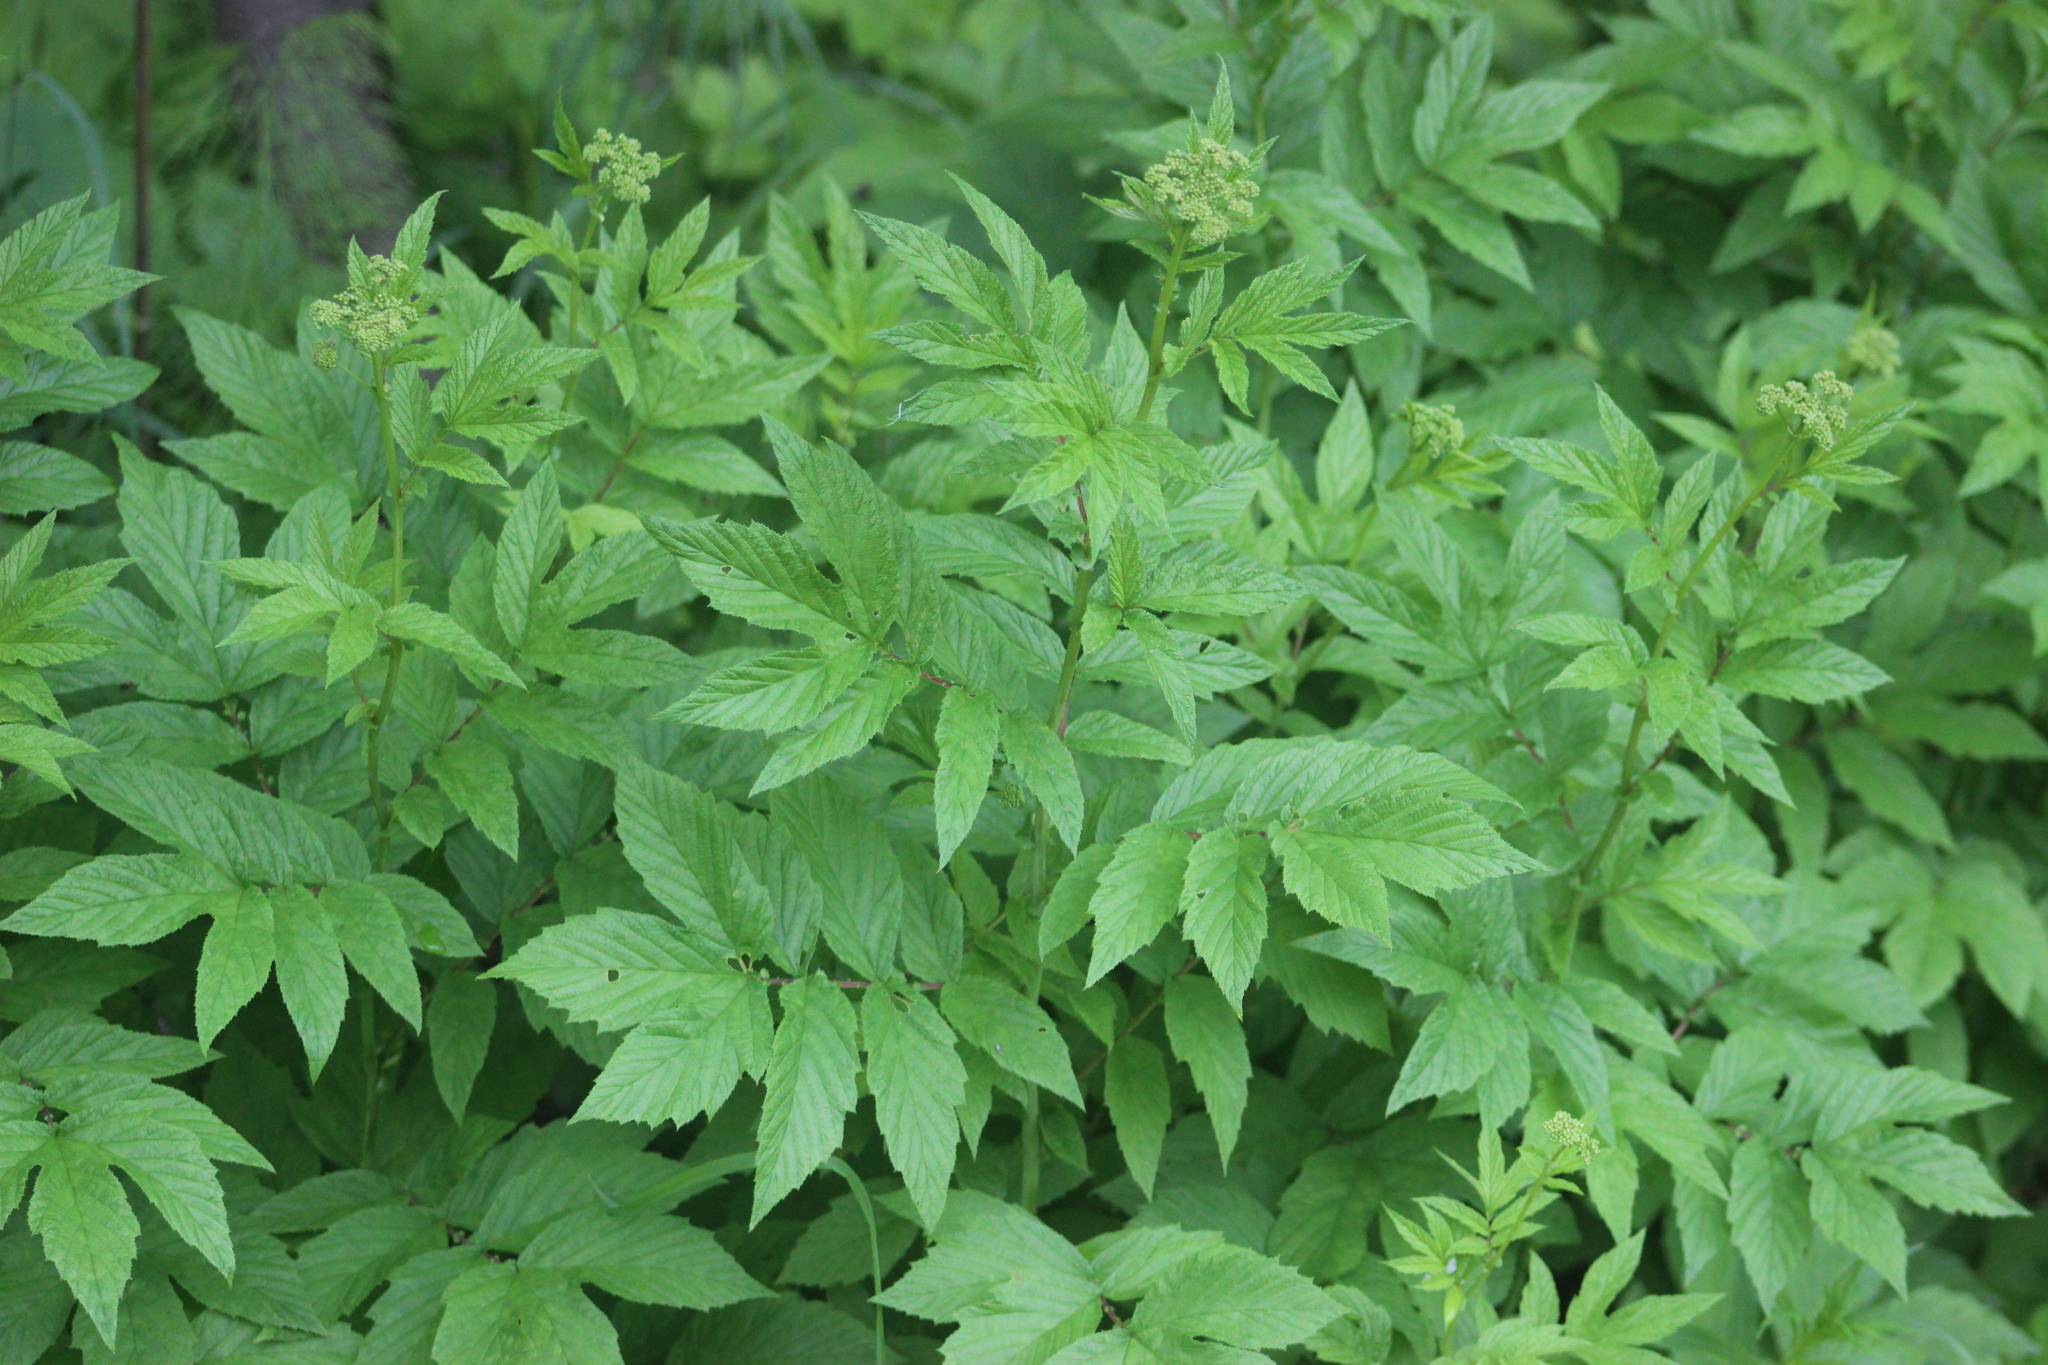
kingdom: Plantae
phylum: Tracheophyta
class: Magnoliopsida
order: Rosales
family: Rosaceae
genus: Filipendula
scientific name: Filipendula ulmaria
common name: Meadowsweet
